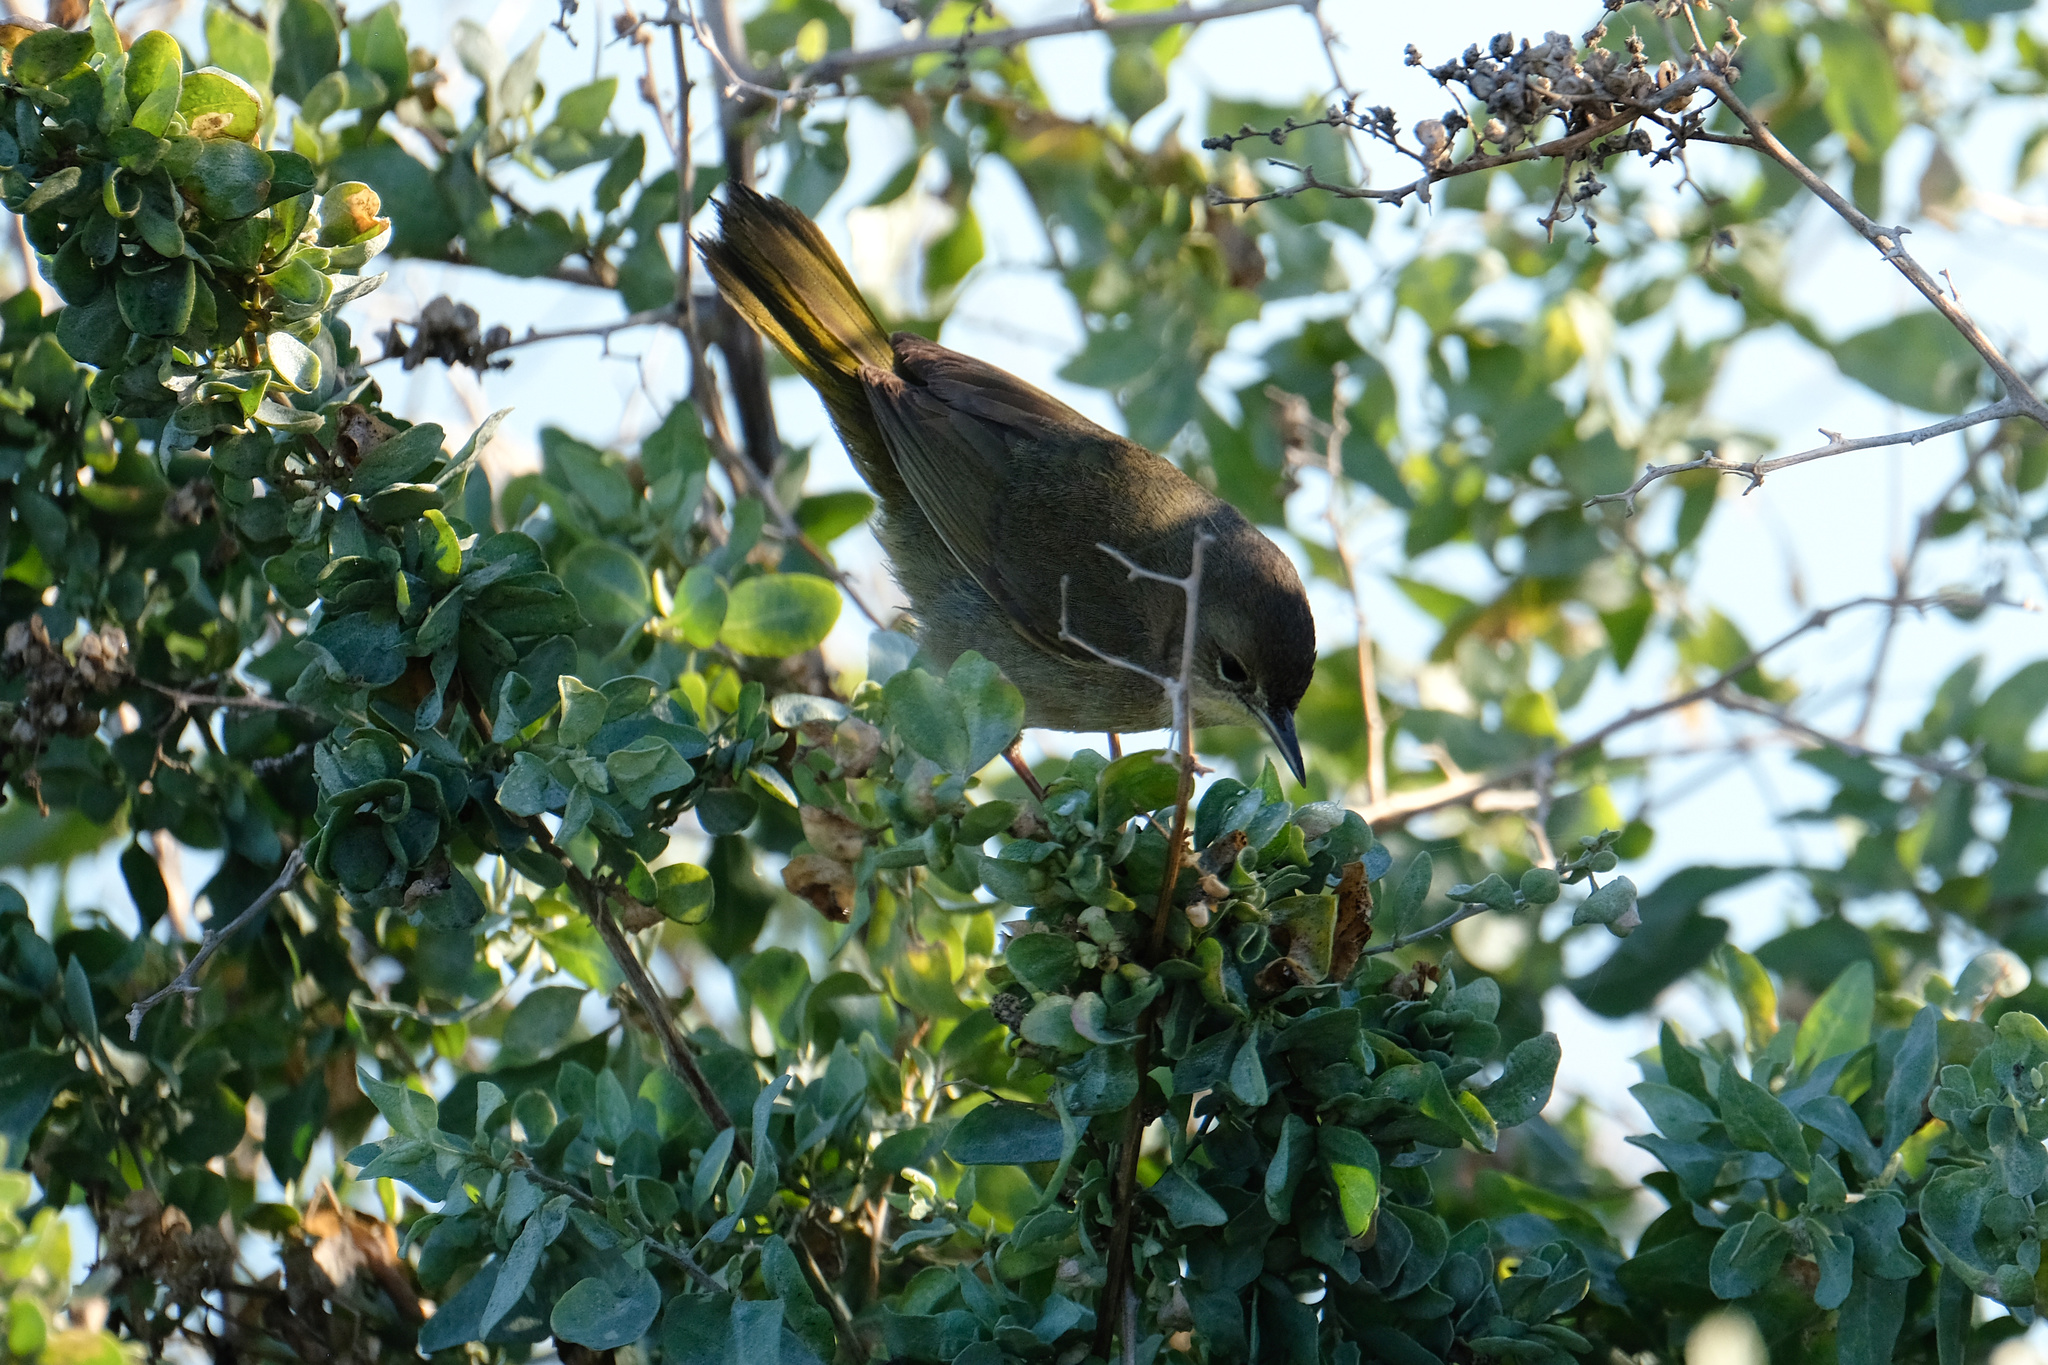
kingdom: Animalia
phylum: Chordata
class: Aves
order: Passeriformes
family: Parulidae
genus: Geothlypis
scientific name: Geothlypis trichas
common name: Common yellowthroat
